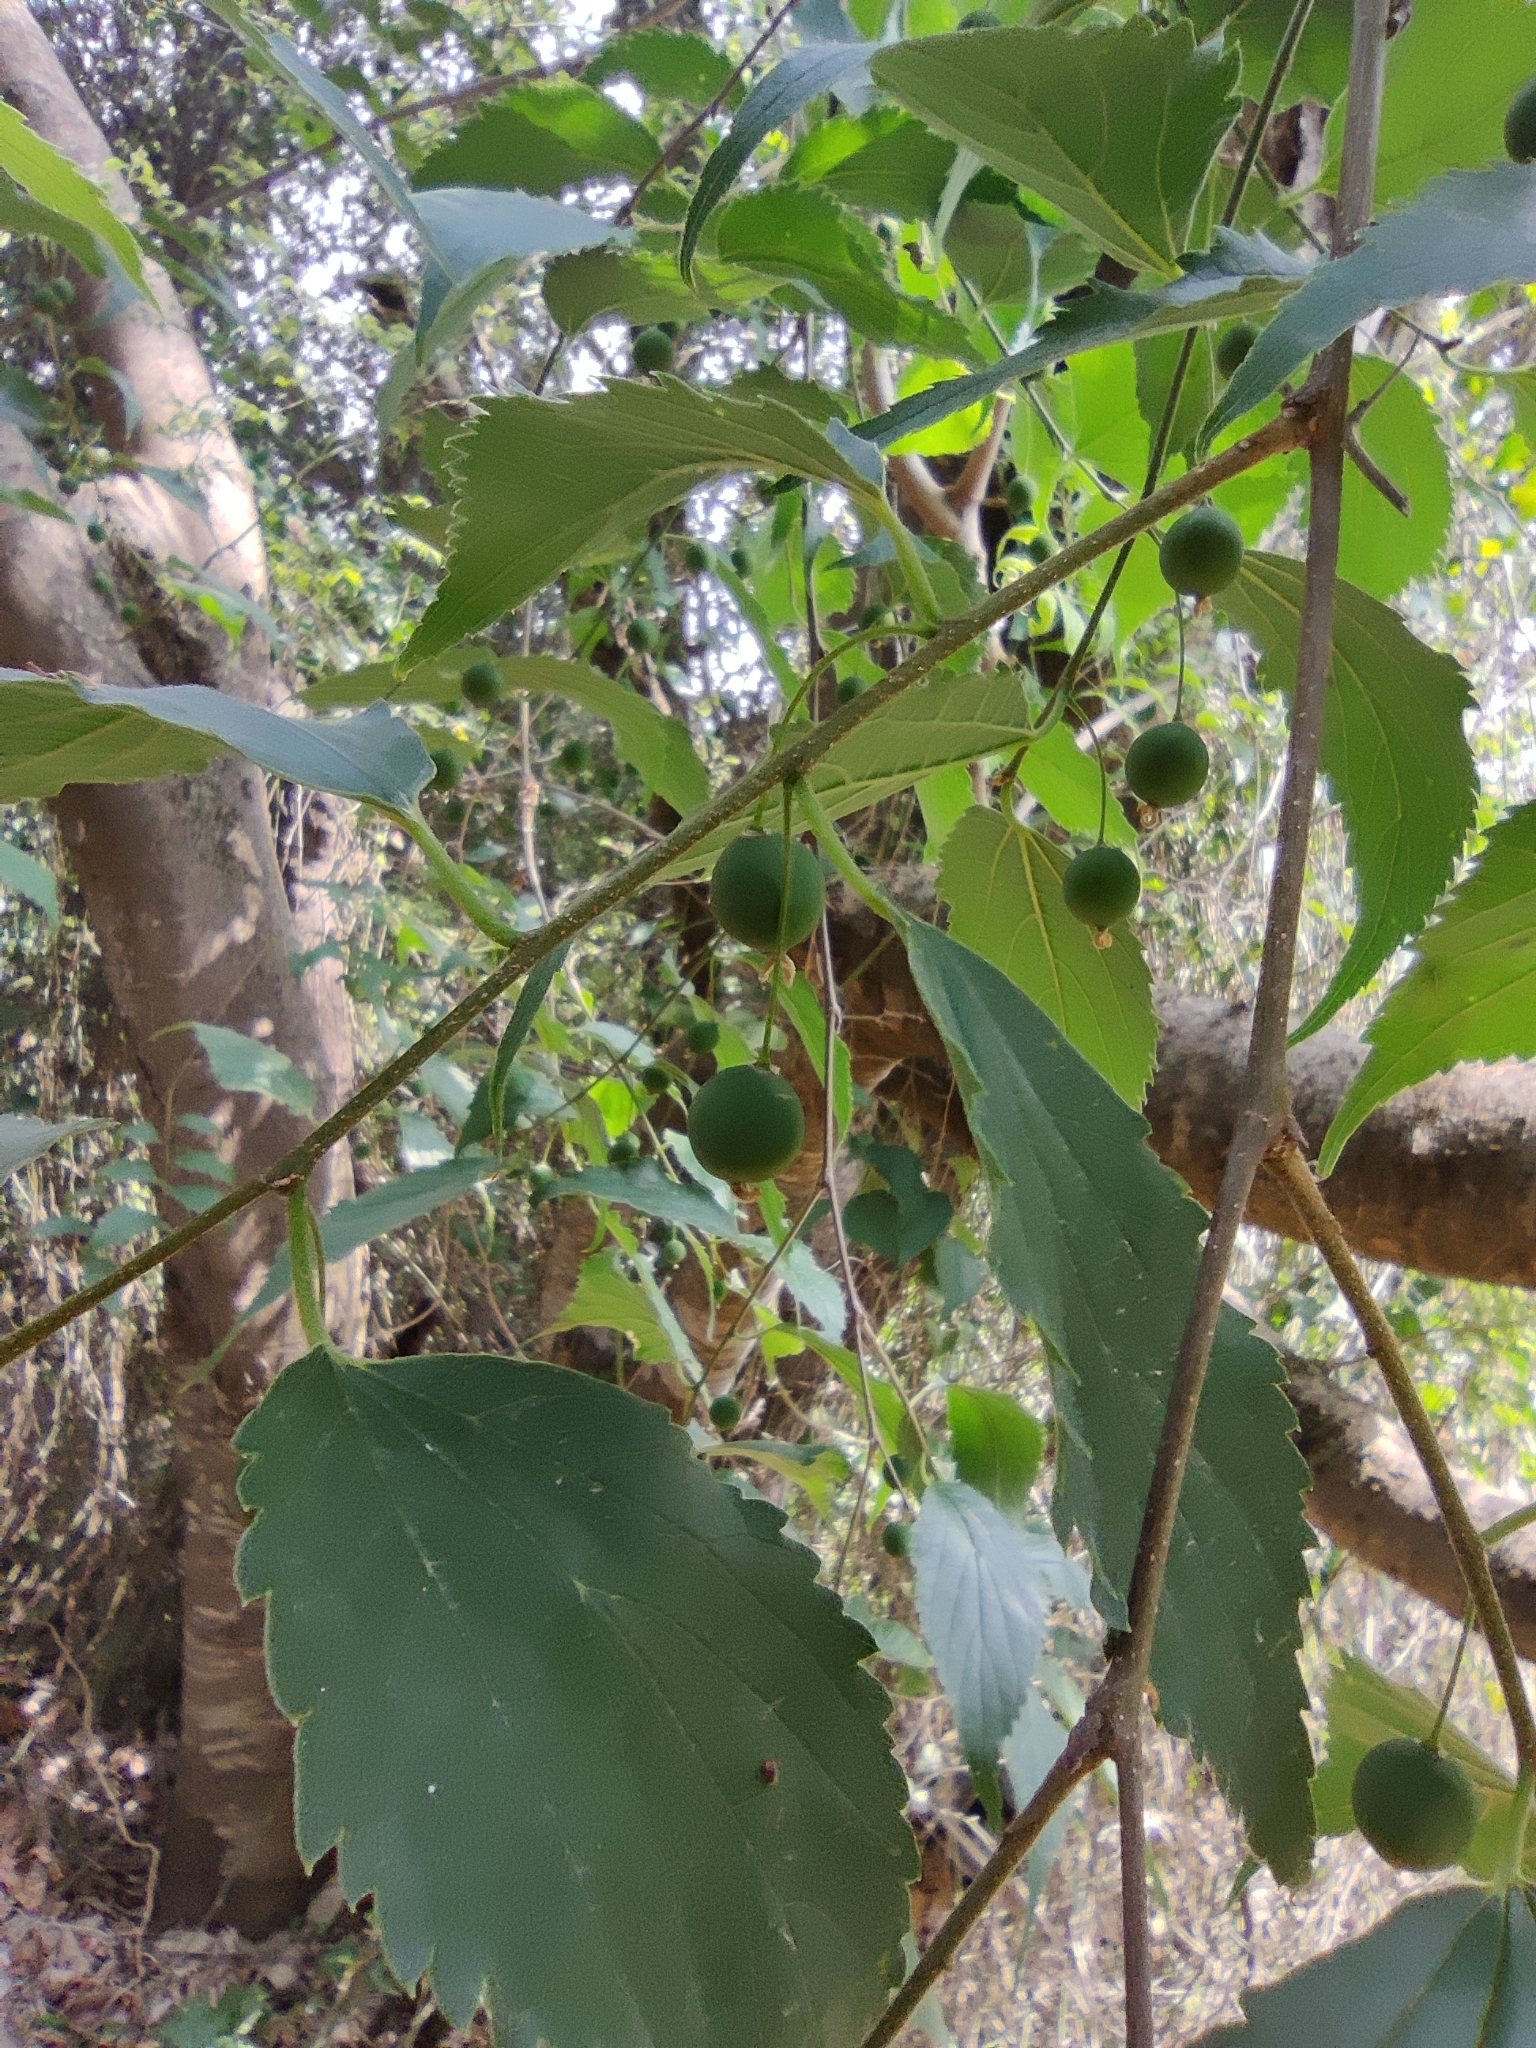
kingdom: Plantae
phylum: Tracheophyta
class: Magnoliopsida
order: Rosales
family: Cannabaceae
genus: Celtis
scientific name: Celtis australis
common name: European hackberry
